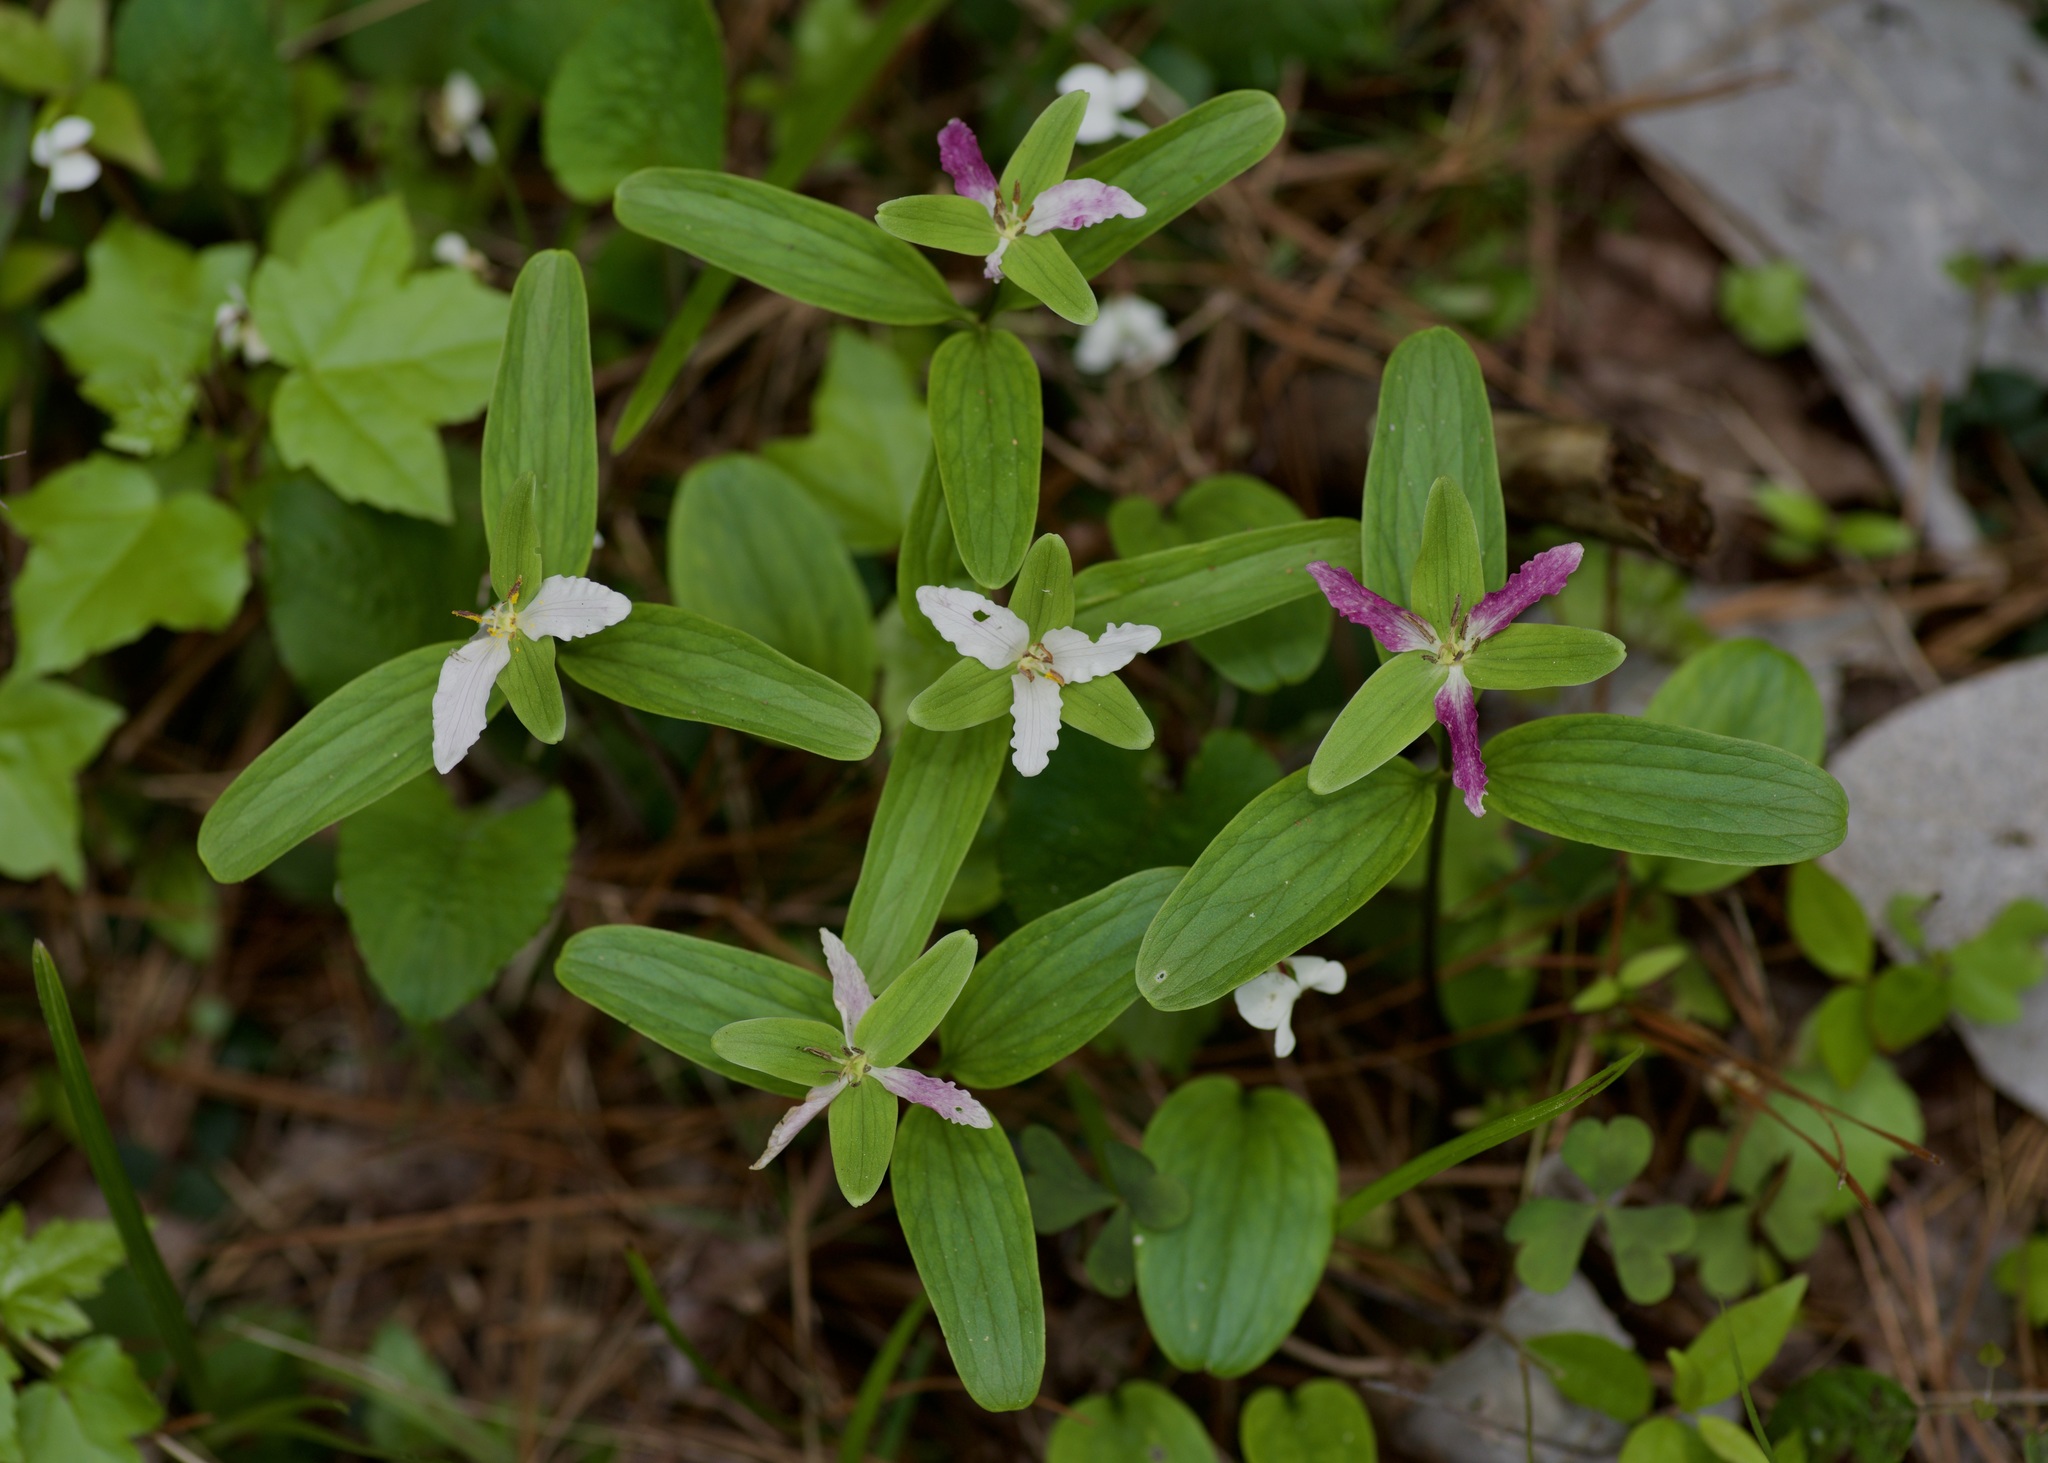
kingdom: Plantae
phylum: Tracheophyta
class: Liliopsida
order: Liliales
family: Melanthiaceae
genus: Trillium
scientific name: Trillium pusillum
